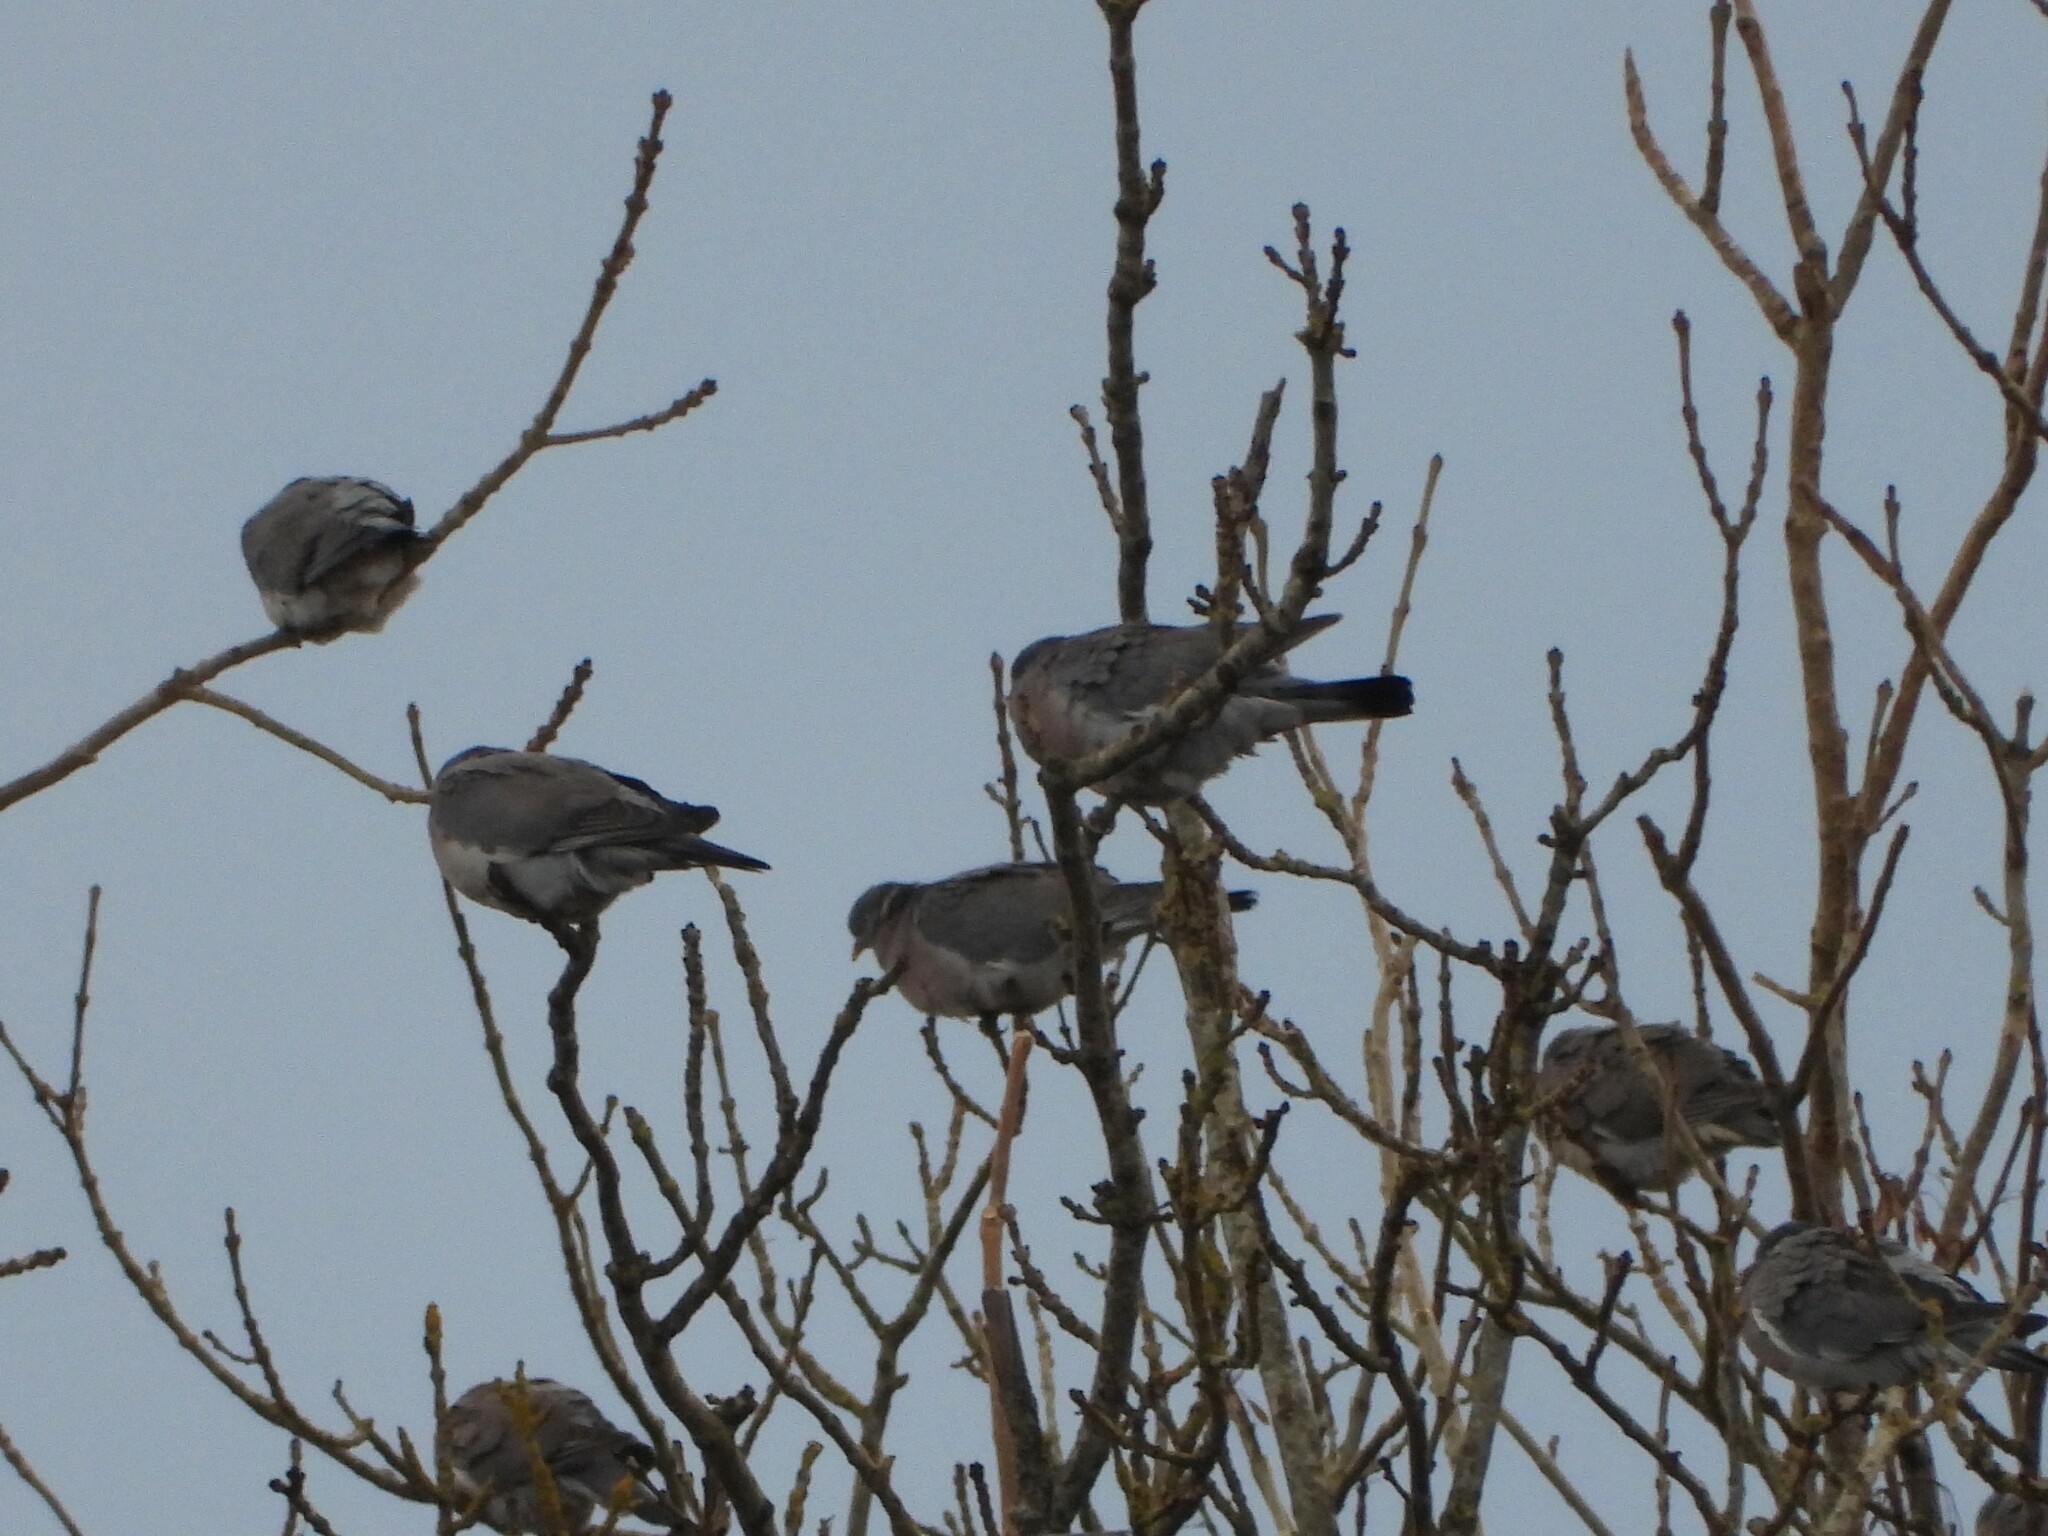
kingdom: Animalia
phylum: Chordata
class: Aves
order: Columbiformes
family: Columbidae
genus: Columba
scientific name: Columba palumbus
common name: Common wood pigeon
